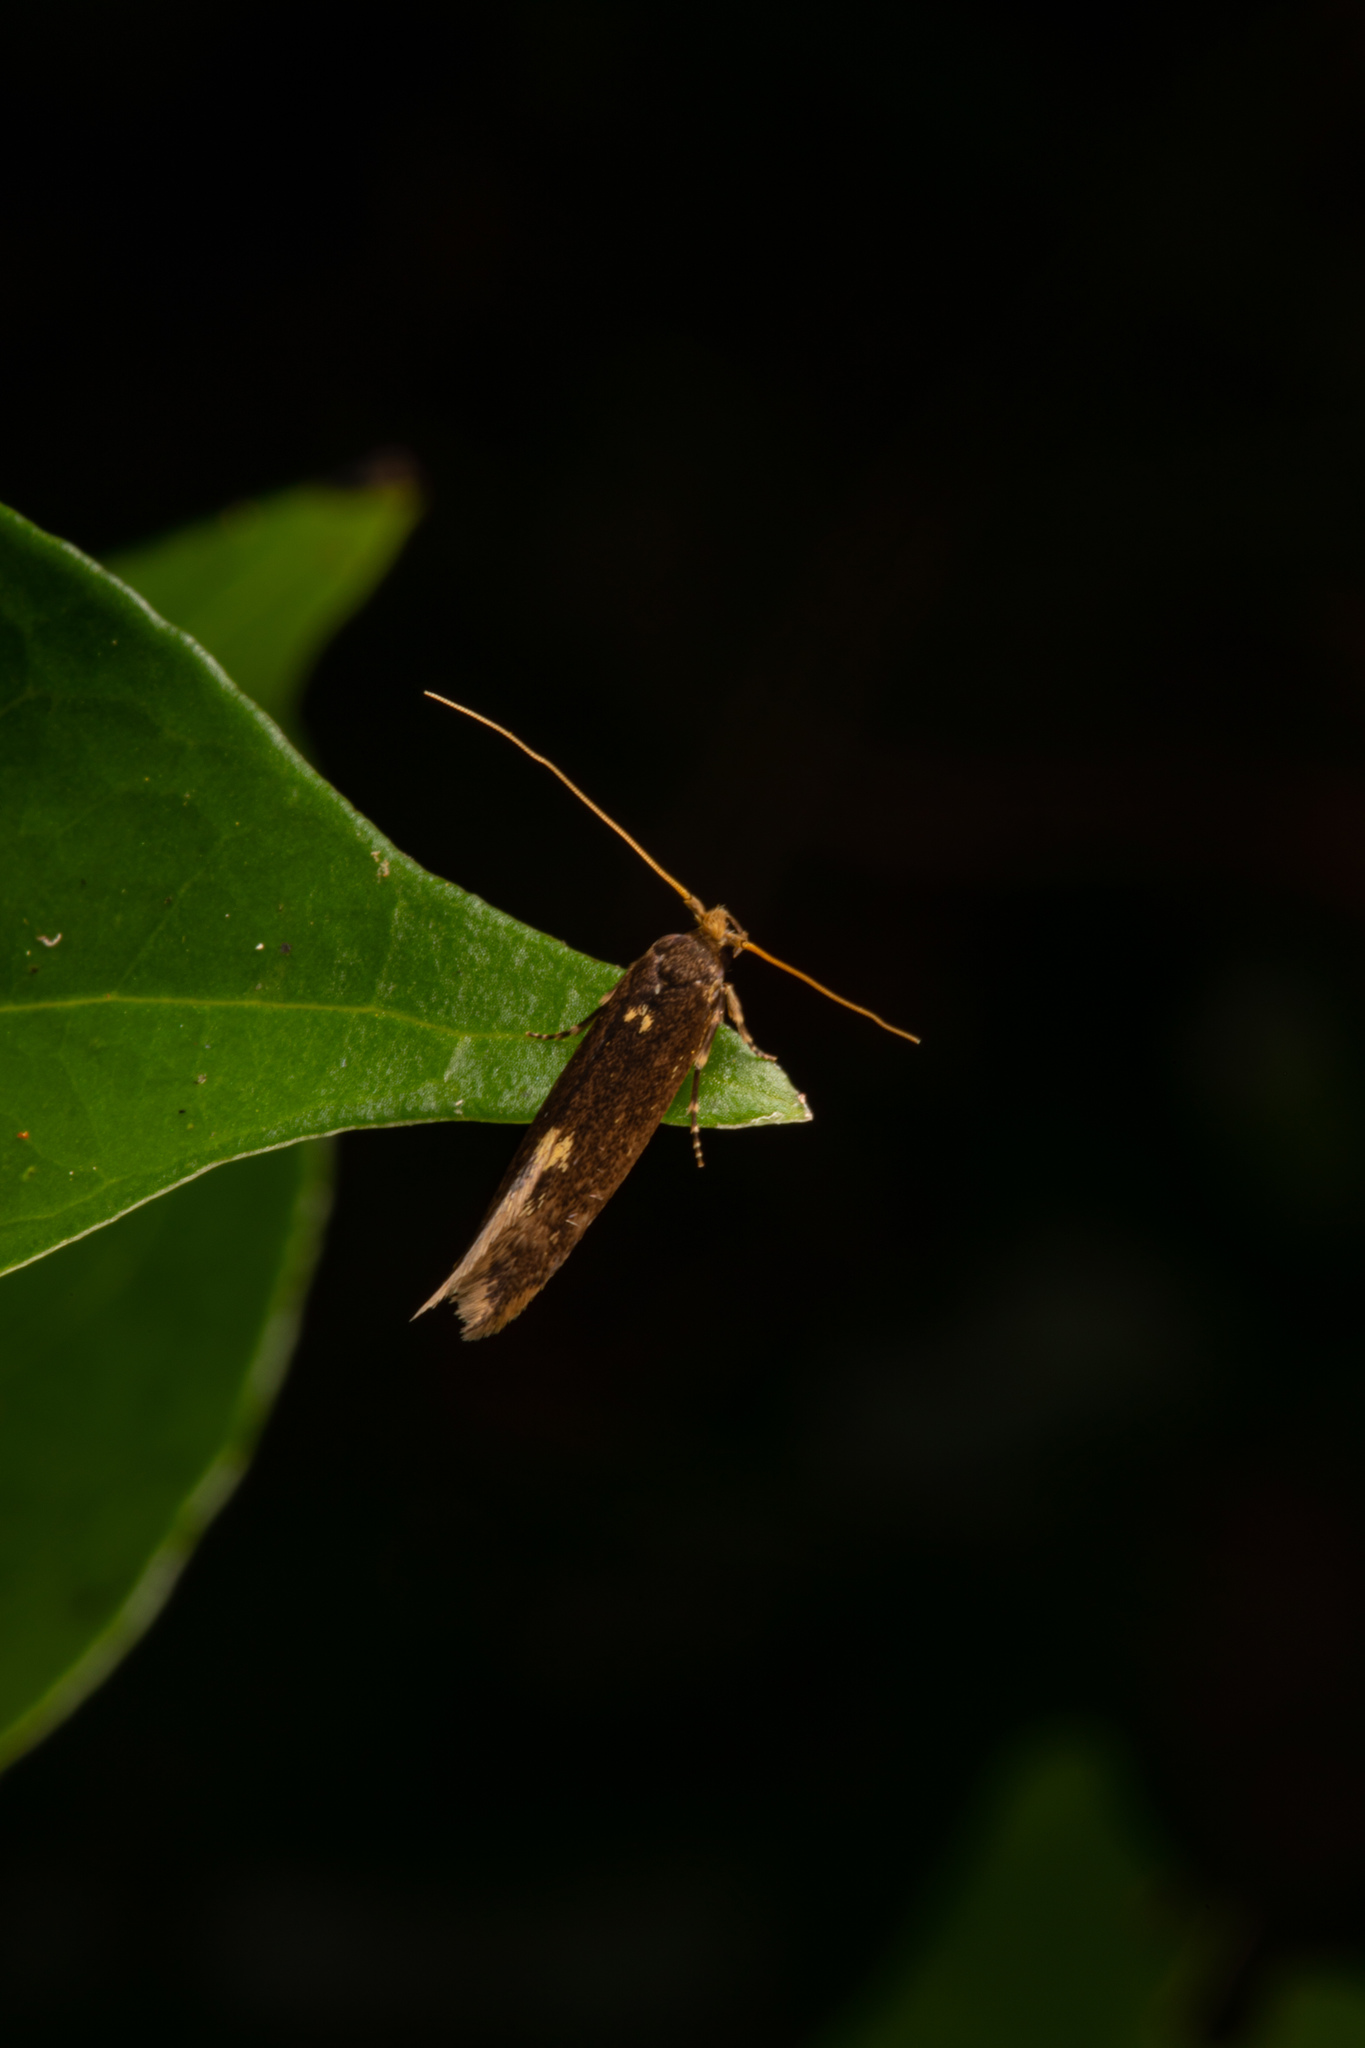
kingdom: Animalia
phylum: Arthropoda
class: Insecta
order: Lepidoptera
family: Tineidae
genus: Opogona
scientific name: Opogona omoscopa
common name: Moth
